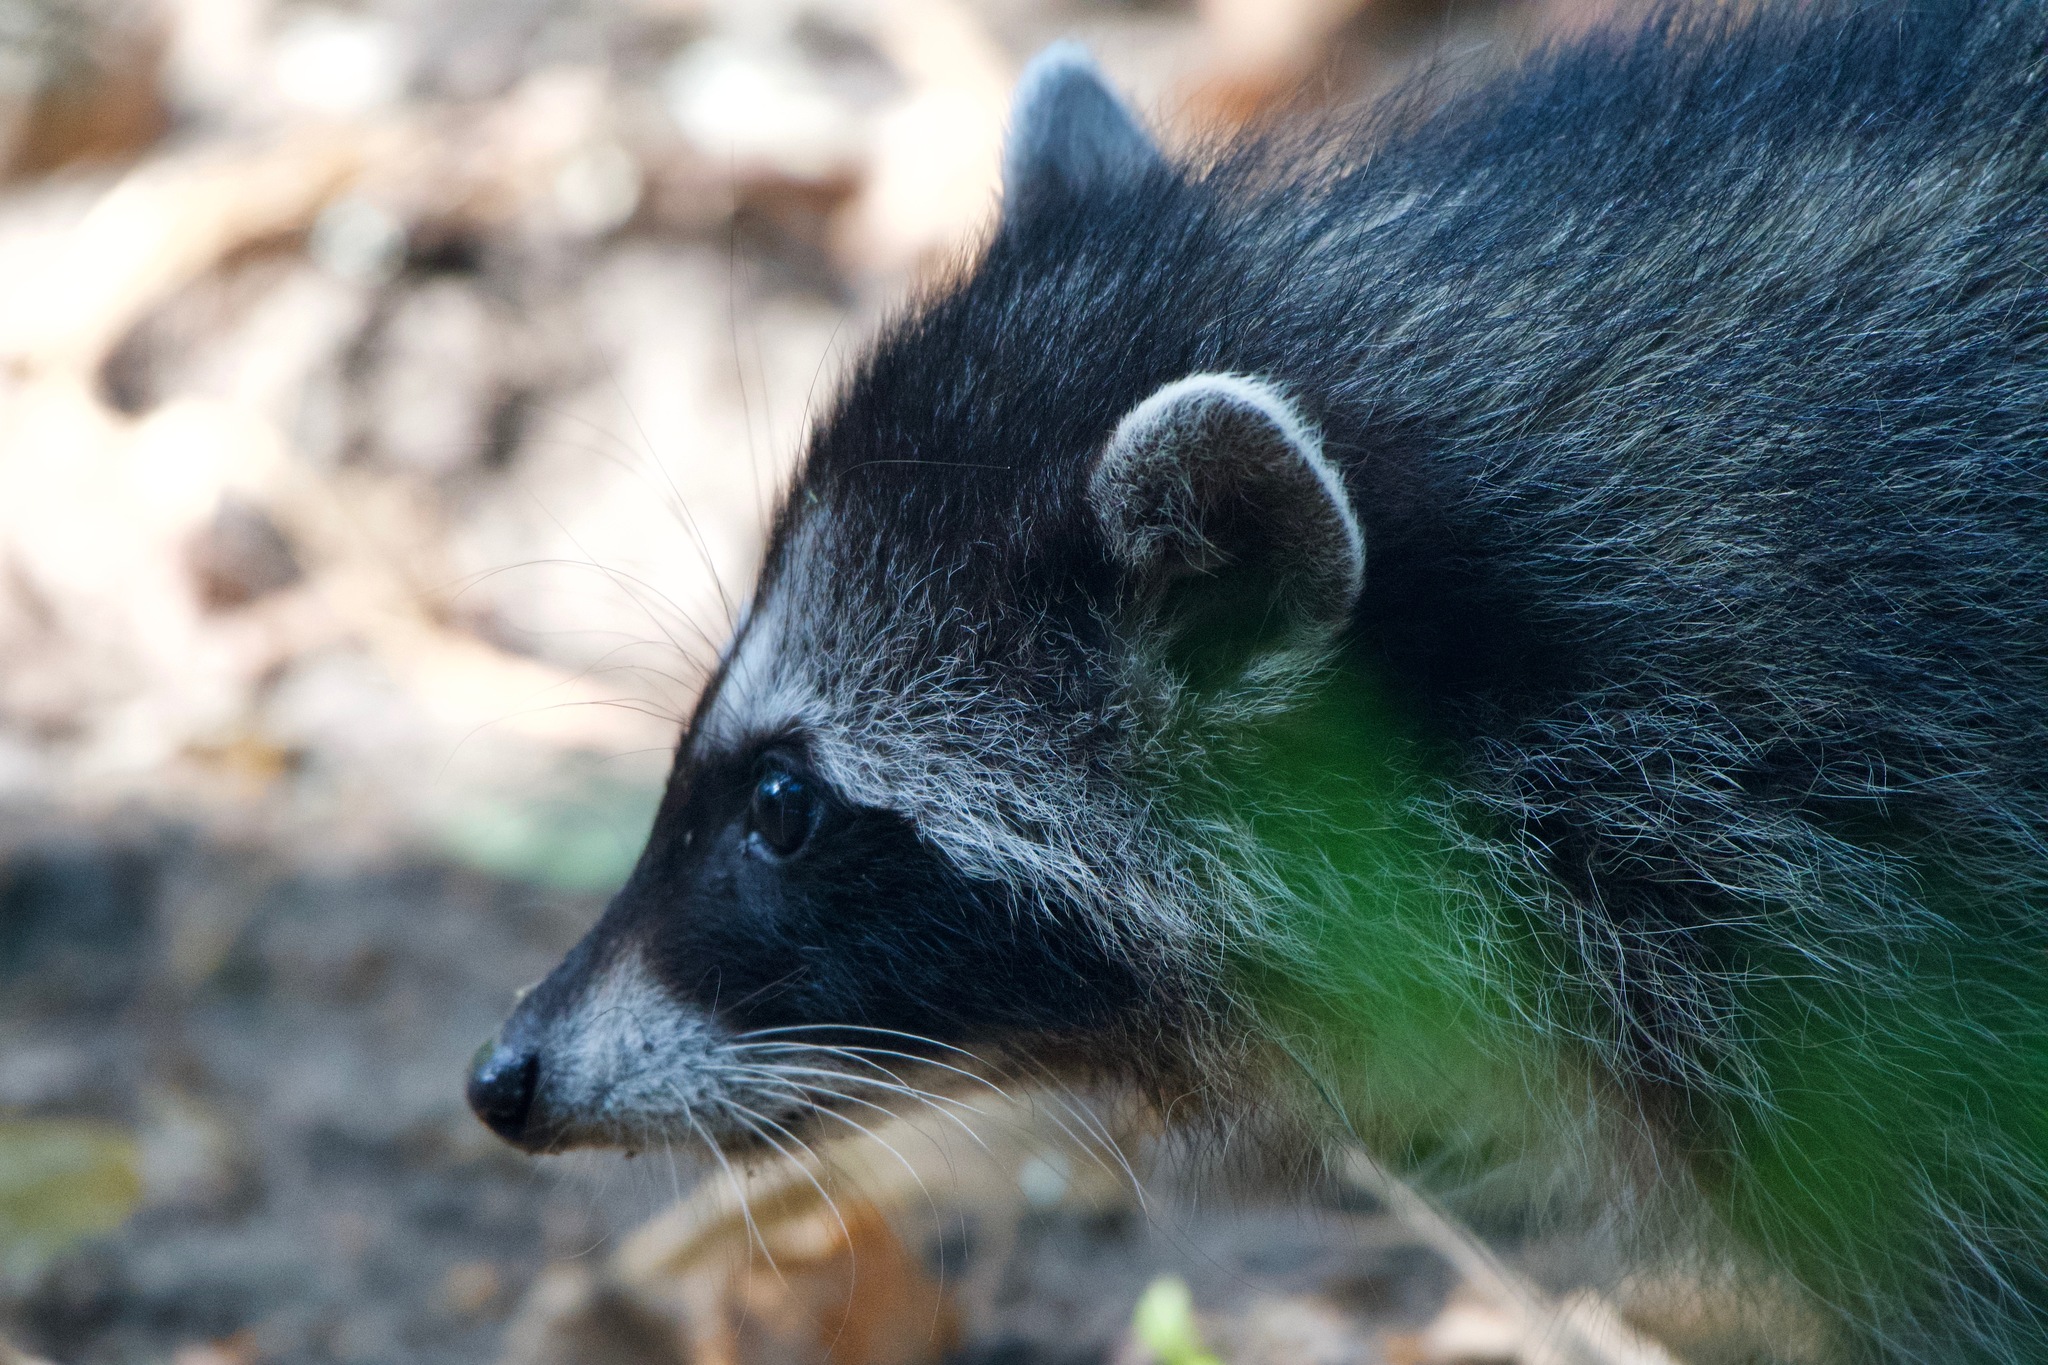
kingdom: Animalia
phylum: Chordata
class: Mammalia
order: Carnivora
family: Procyonidae
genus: Procyon
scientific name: Procyon lotor
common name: Raccoon
